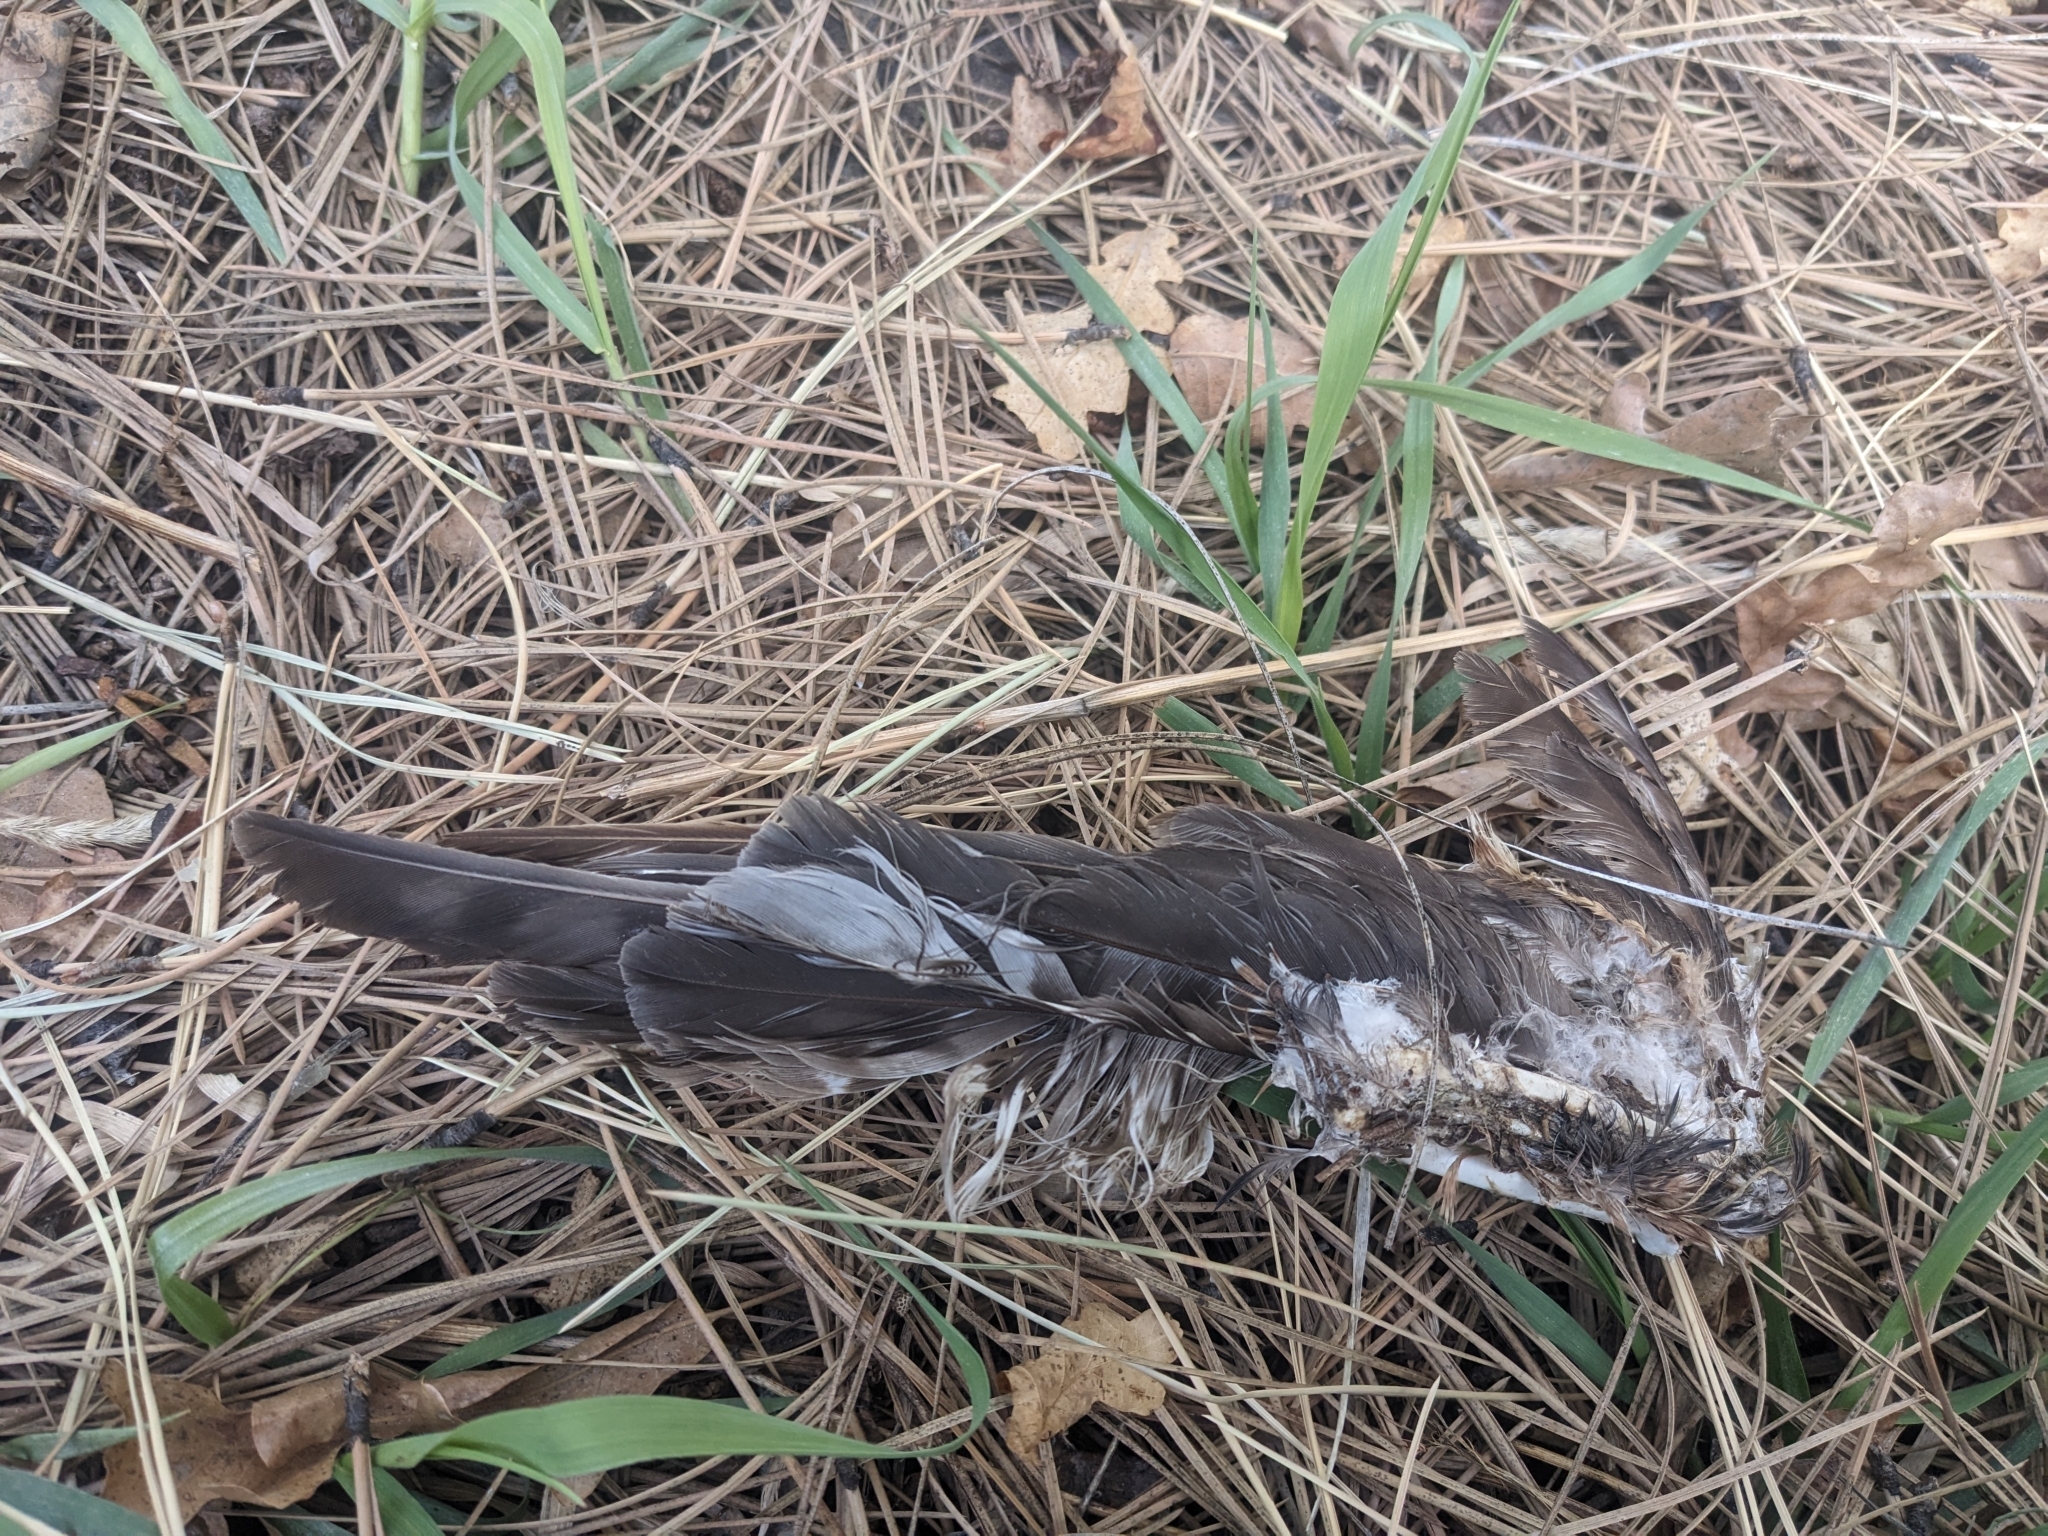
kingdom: Animalia
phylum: Chordata
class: Aves
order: Accipitriformes
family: Accipitridae
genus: Accipiter
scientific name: Accipiter cooperii
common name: Cooper's hawk
